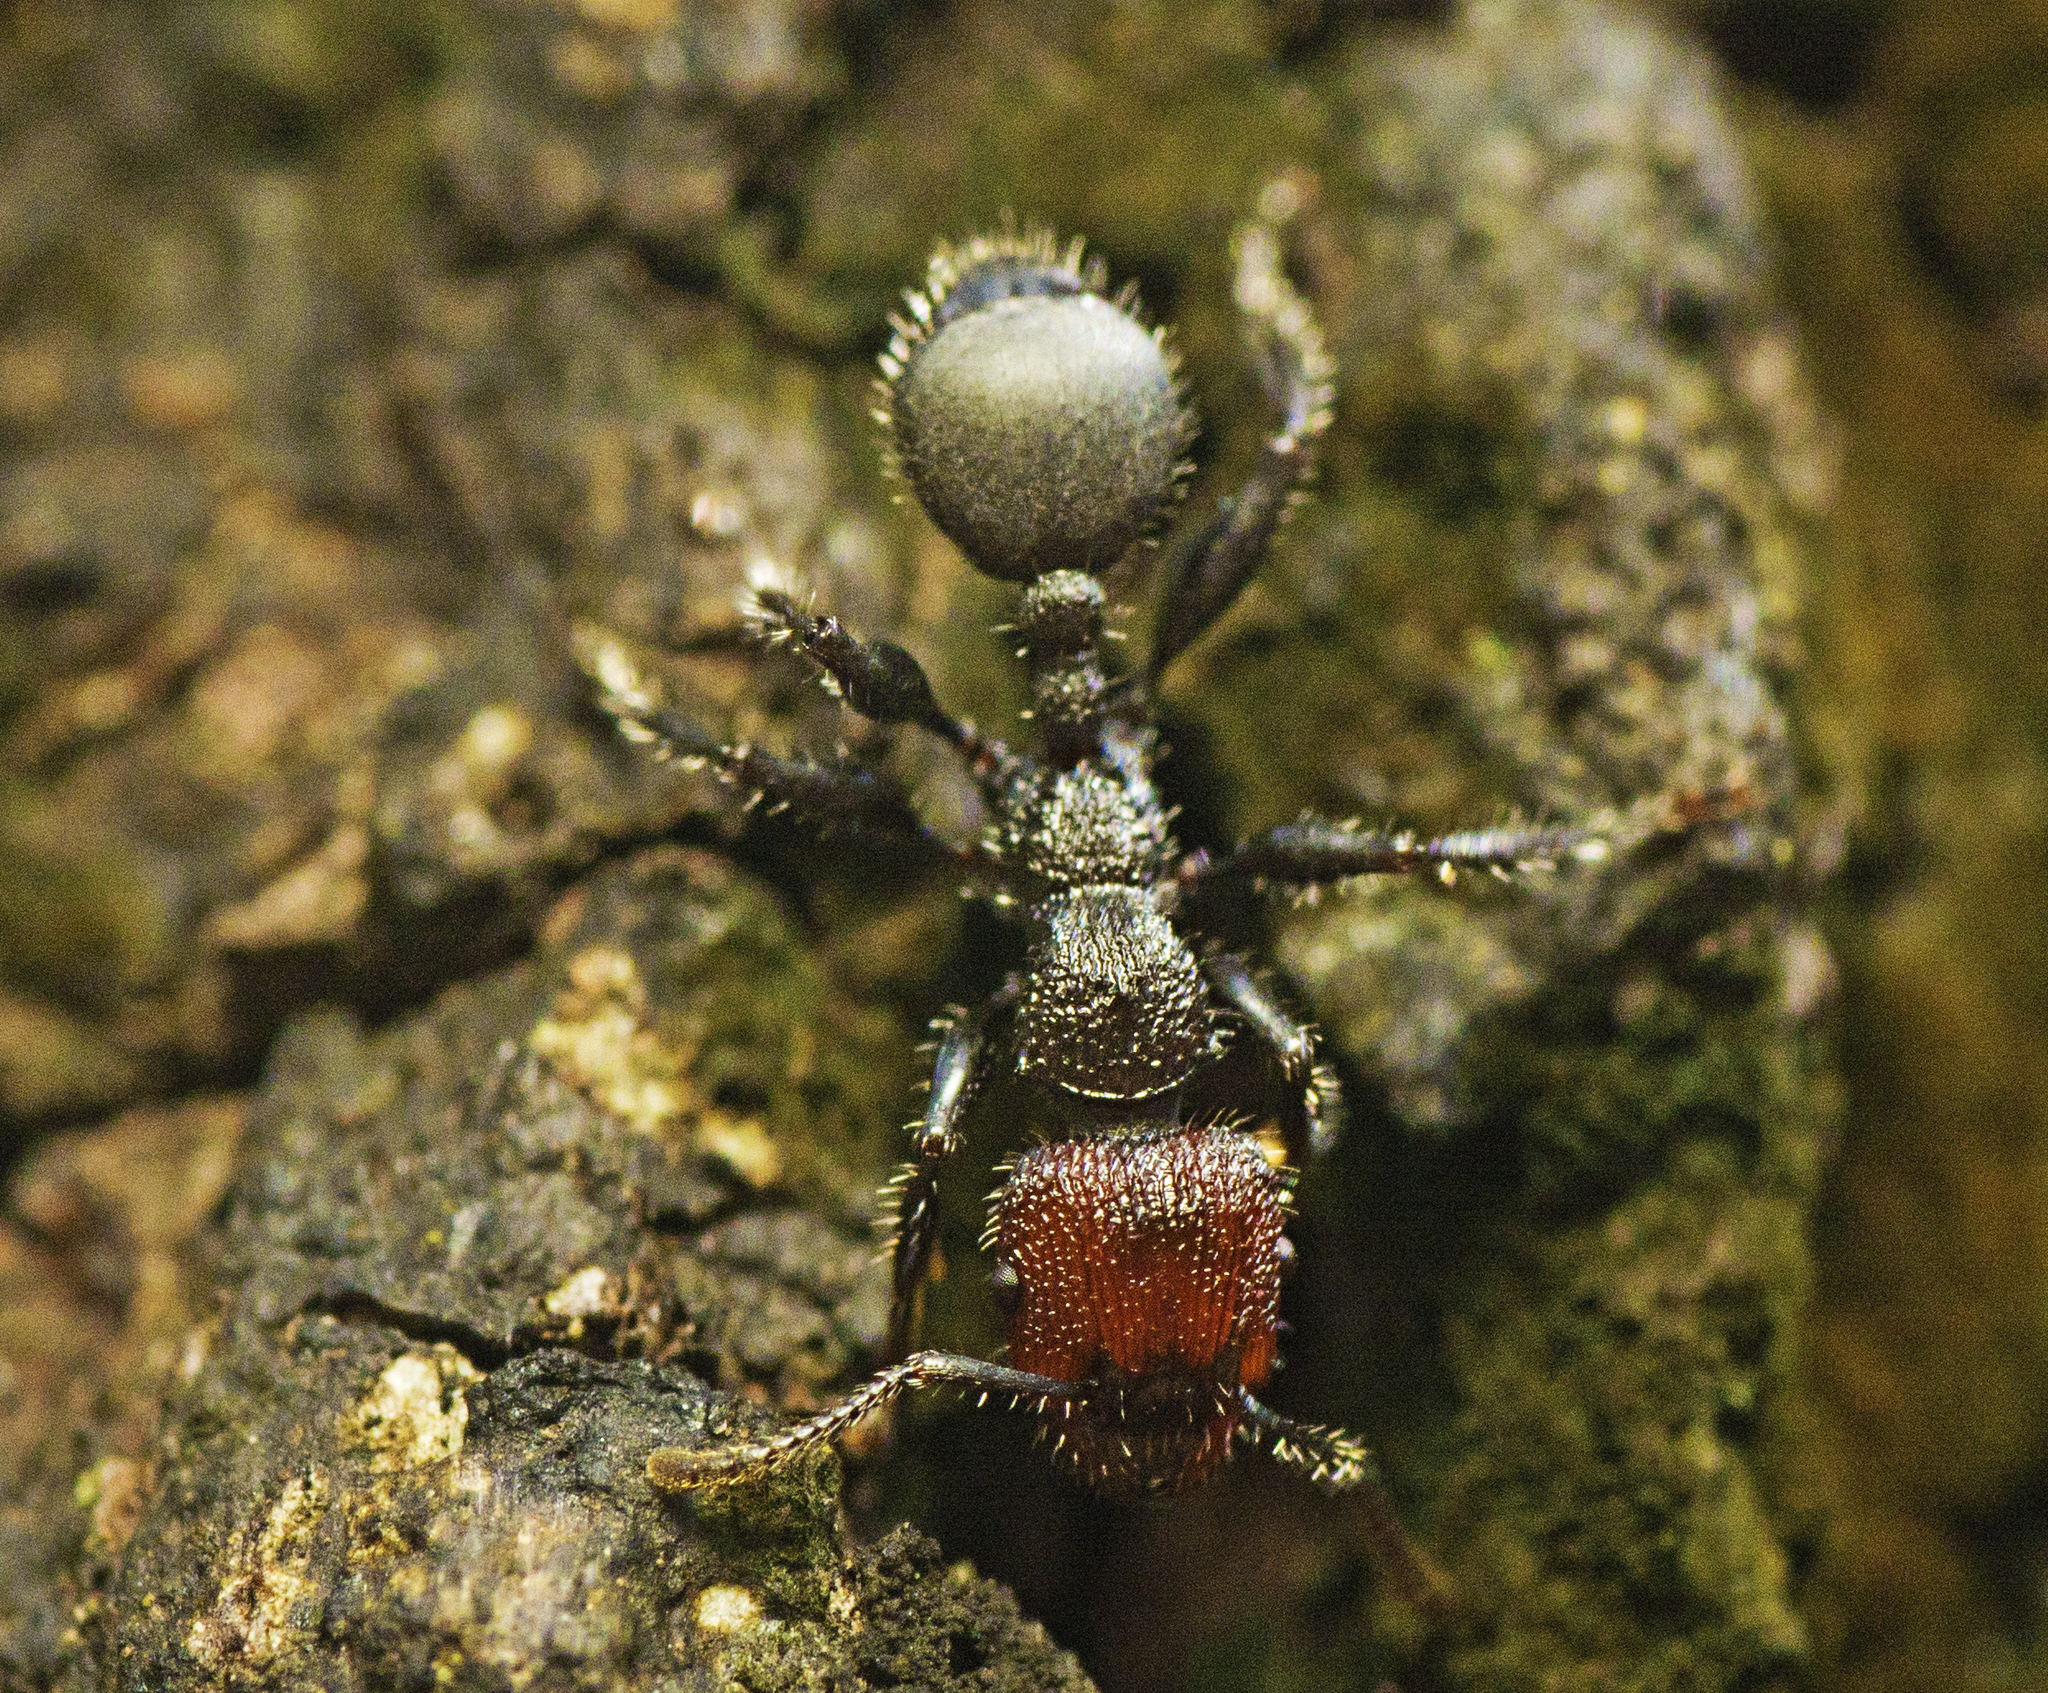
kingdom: Animalia
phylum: Arthropoda
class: Insecta
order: Hymenoptera
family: Formicidae
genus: Podomyrma
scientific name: Podomyrma micans
